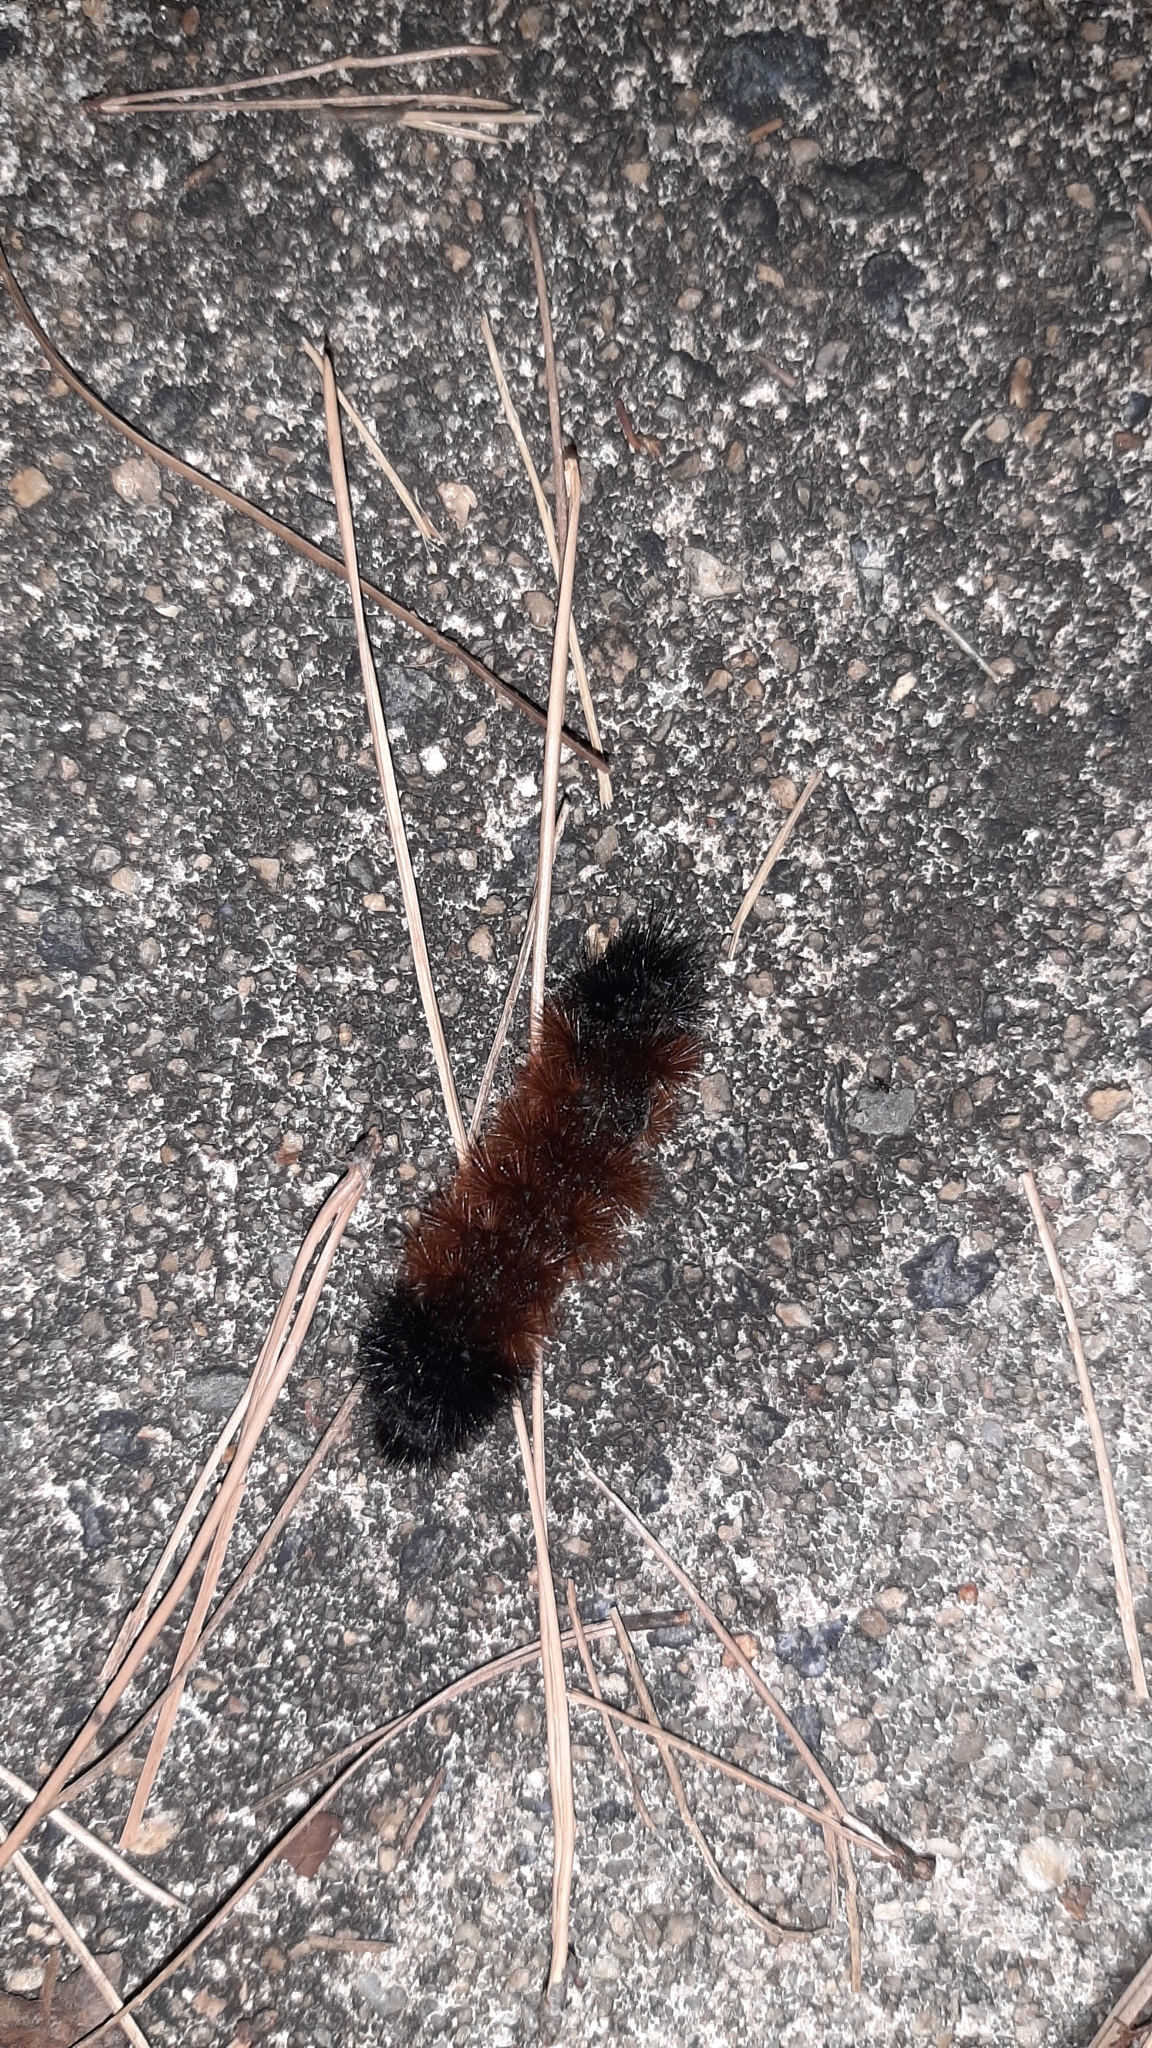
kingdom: Animalia
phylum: Arthropoda
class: Insecta
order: Lepidoptera
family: Erebidae
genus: Pyrrharctia
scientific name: Pyrrharctia isabella
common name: Isabella tiger moth
